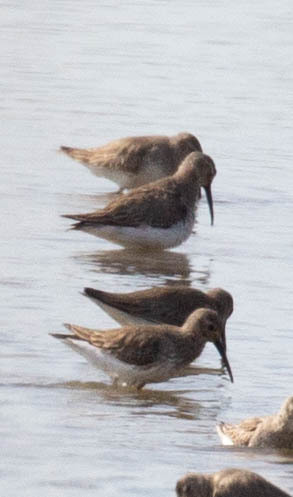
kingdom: Animalia
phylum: Chordata
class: Aves
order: Charadriiformes
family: Scolopacidae
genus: Calidris
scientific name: Calidris alpina
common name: Dunlin
